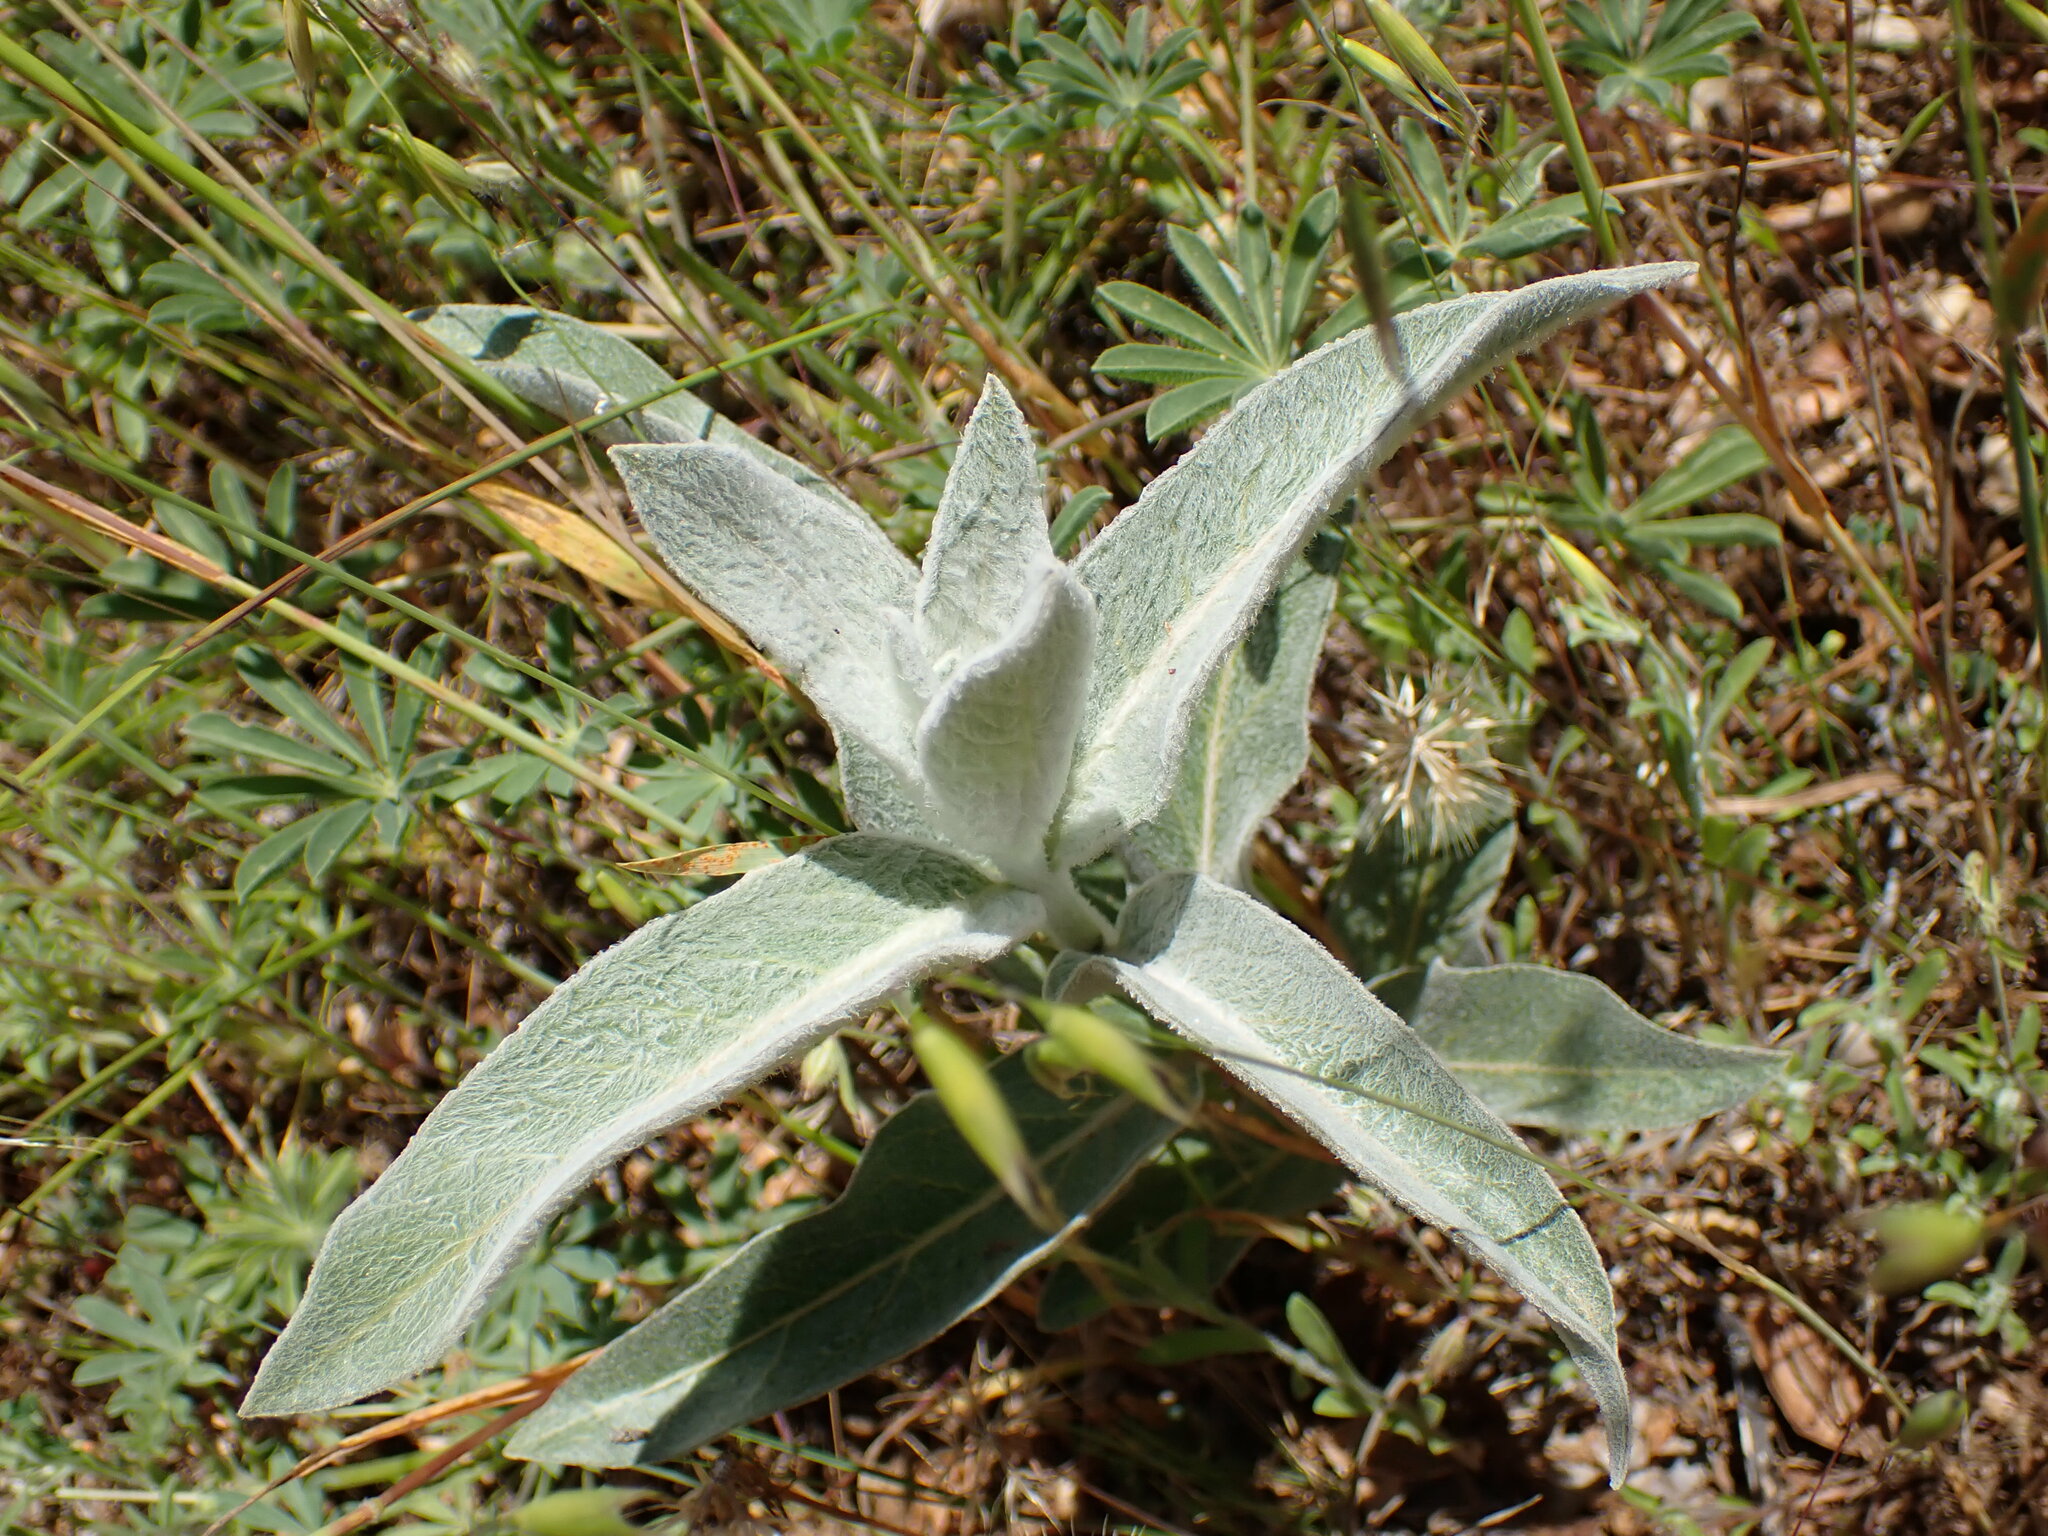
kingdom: Plantae
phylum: Tracheophyta
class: Magnoliopsida
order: Gentianales
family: Apocynaceae
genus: Asclepias
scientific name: Asclepias eriocarpa
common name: Indian milkweed
